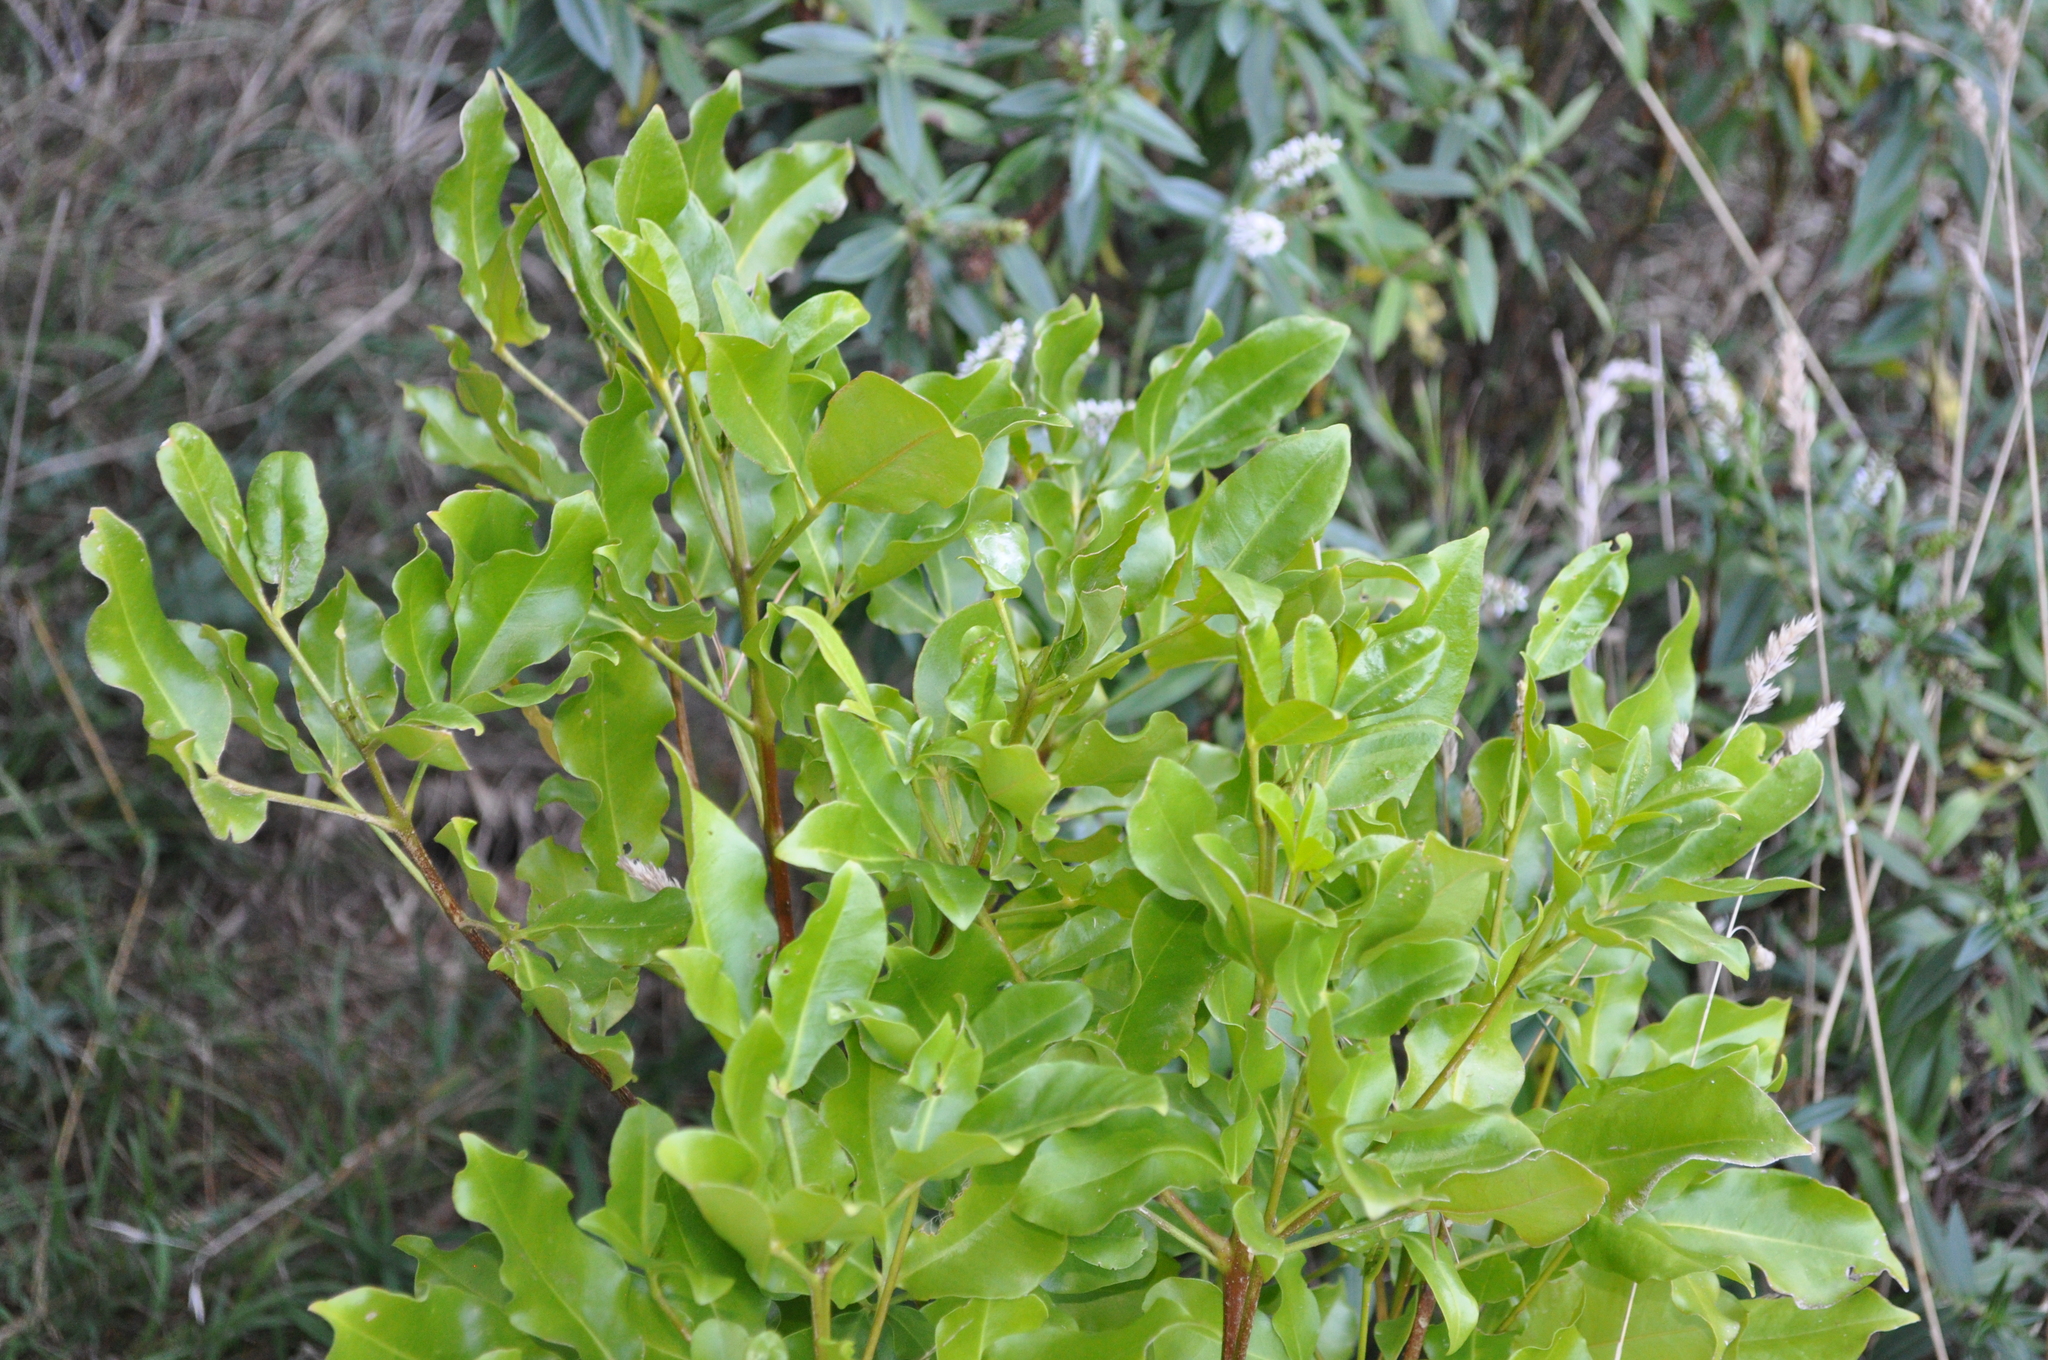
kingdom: Plantae
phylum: Tracheophyta
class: Magnoliopsida
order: Sapindales
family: Rutaceae
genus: Melicope
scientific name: Melicope ternata
